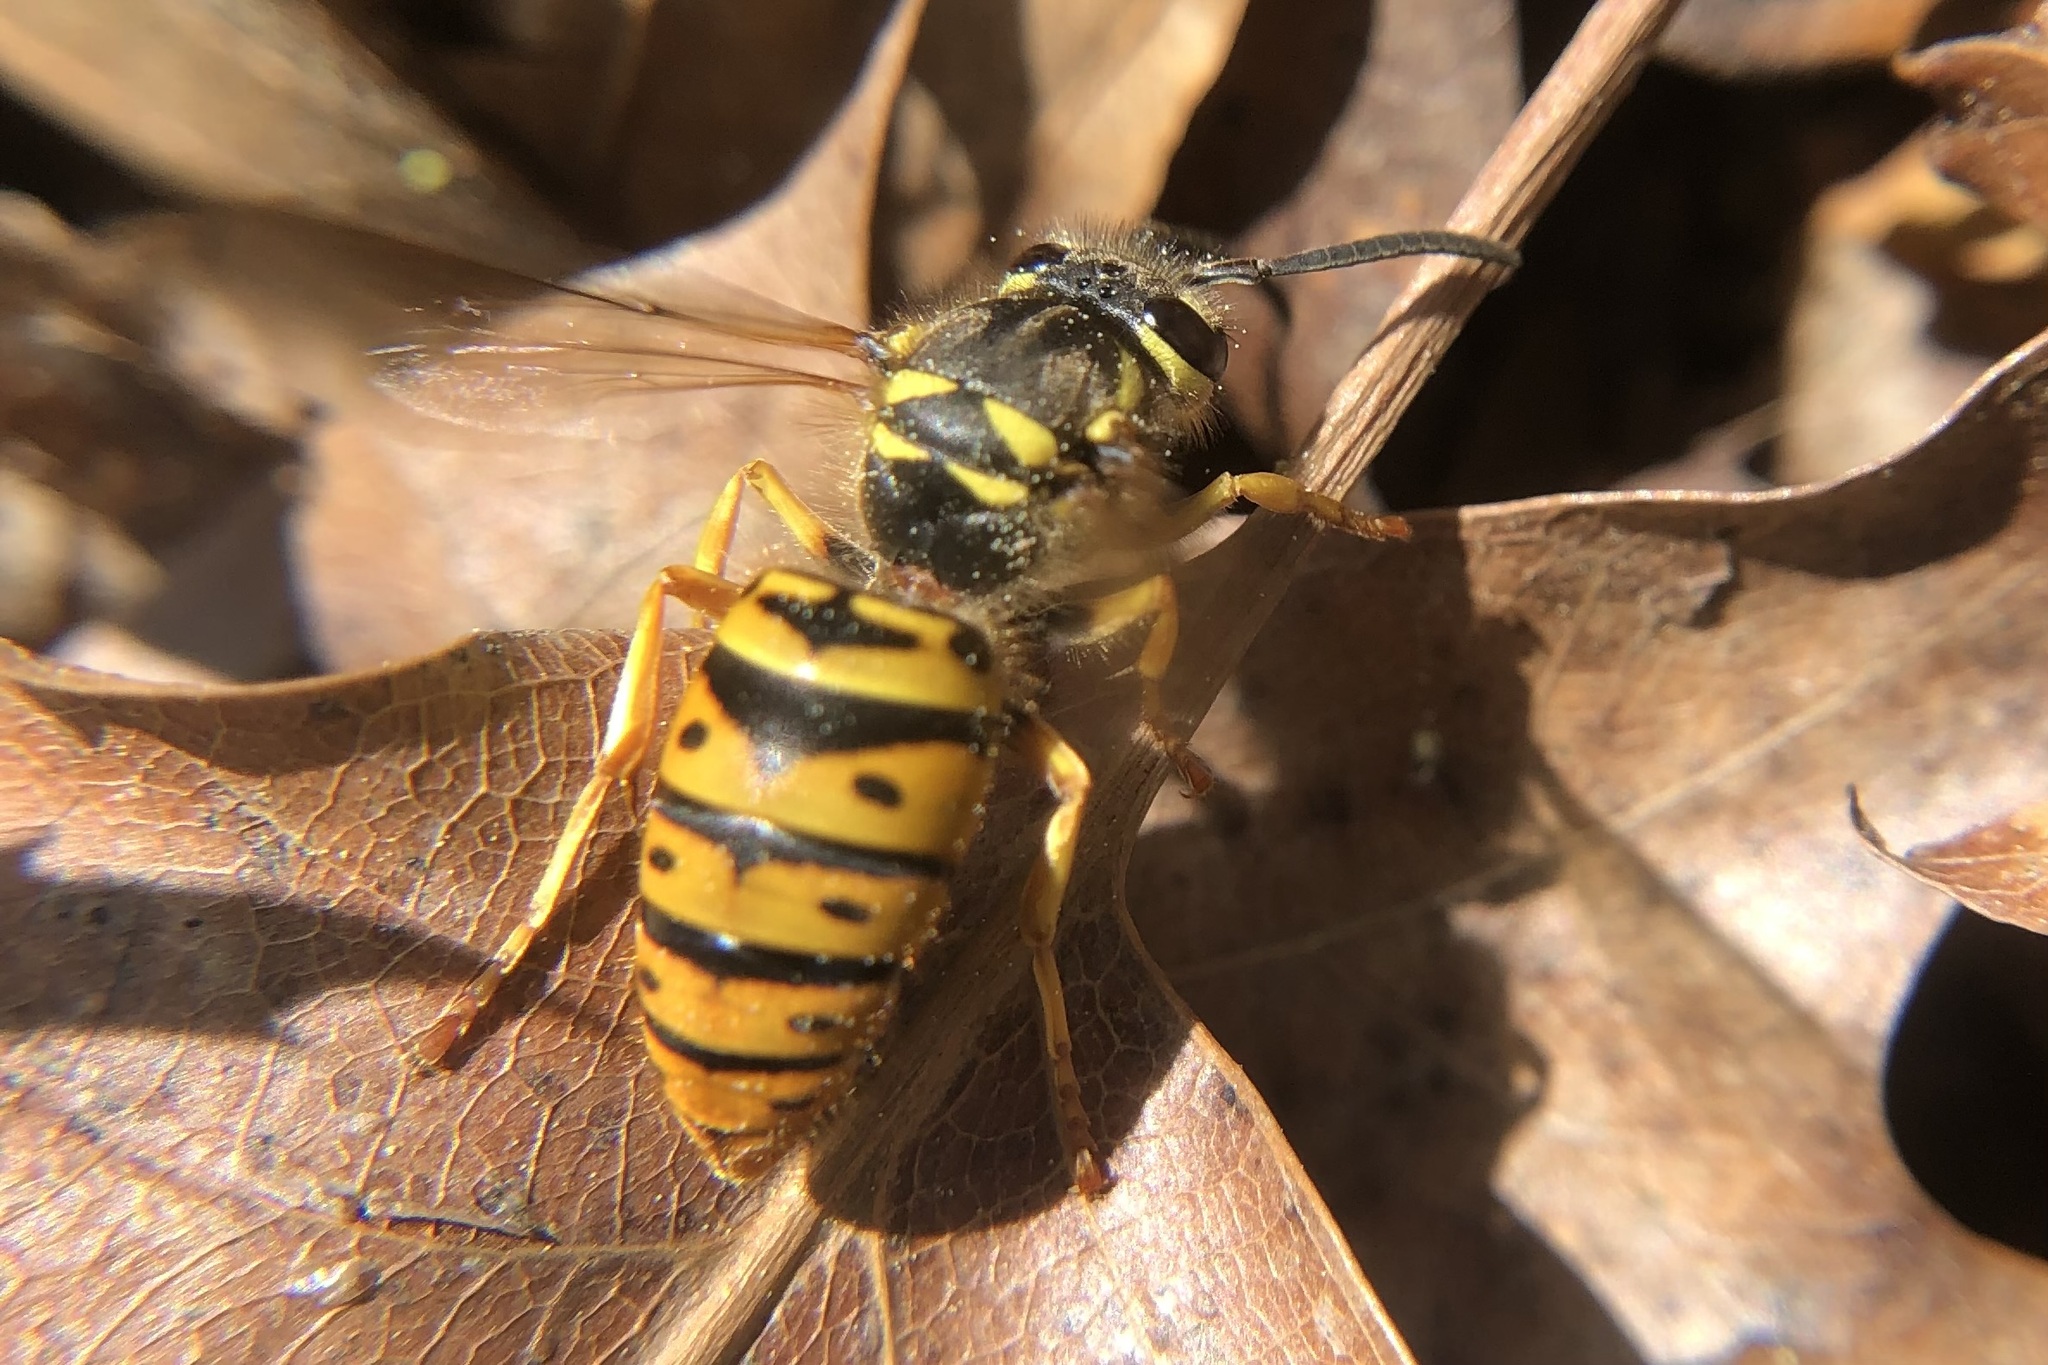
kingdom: Animalia
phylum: Arthropoda
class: Insecta
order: Hymenoptera
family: Vespidae
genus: Vespula
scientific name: Vespula maculifrons
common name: Eastern yellowjacket
